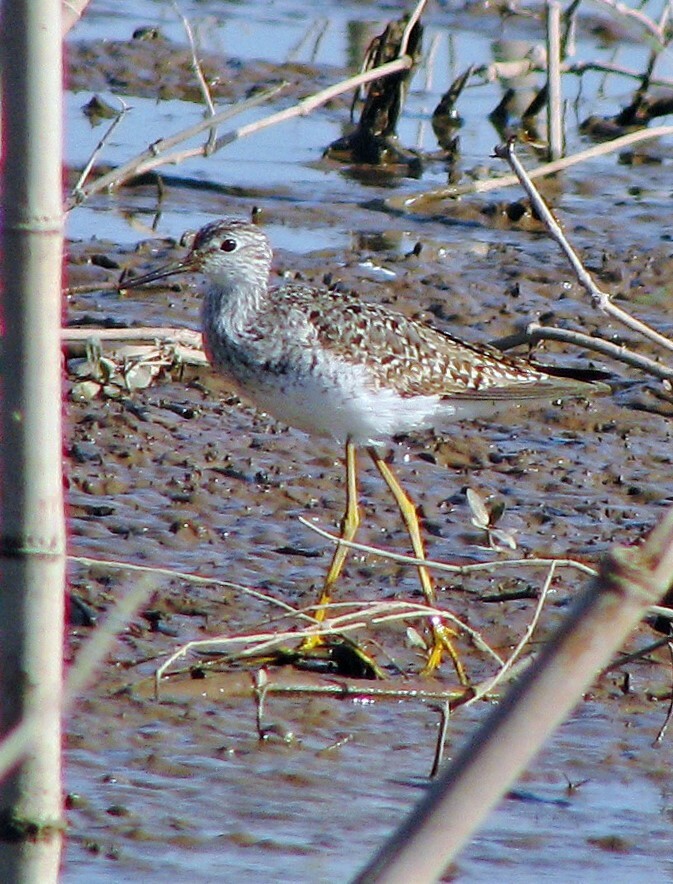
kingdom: Animalia
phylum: Chordata
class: Aves
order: Charadriiformes
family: Scolopacidae
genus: Tringa
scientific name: Tringa flavipes
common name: Lesser yellowlegs
